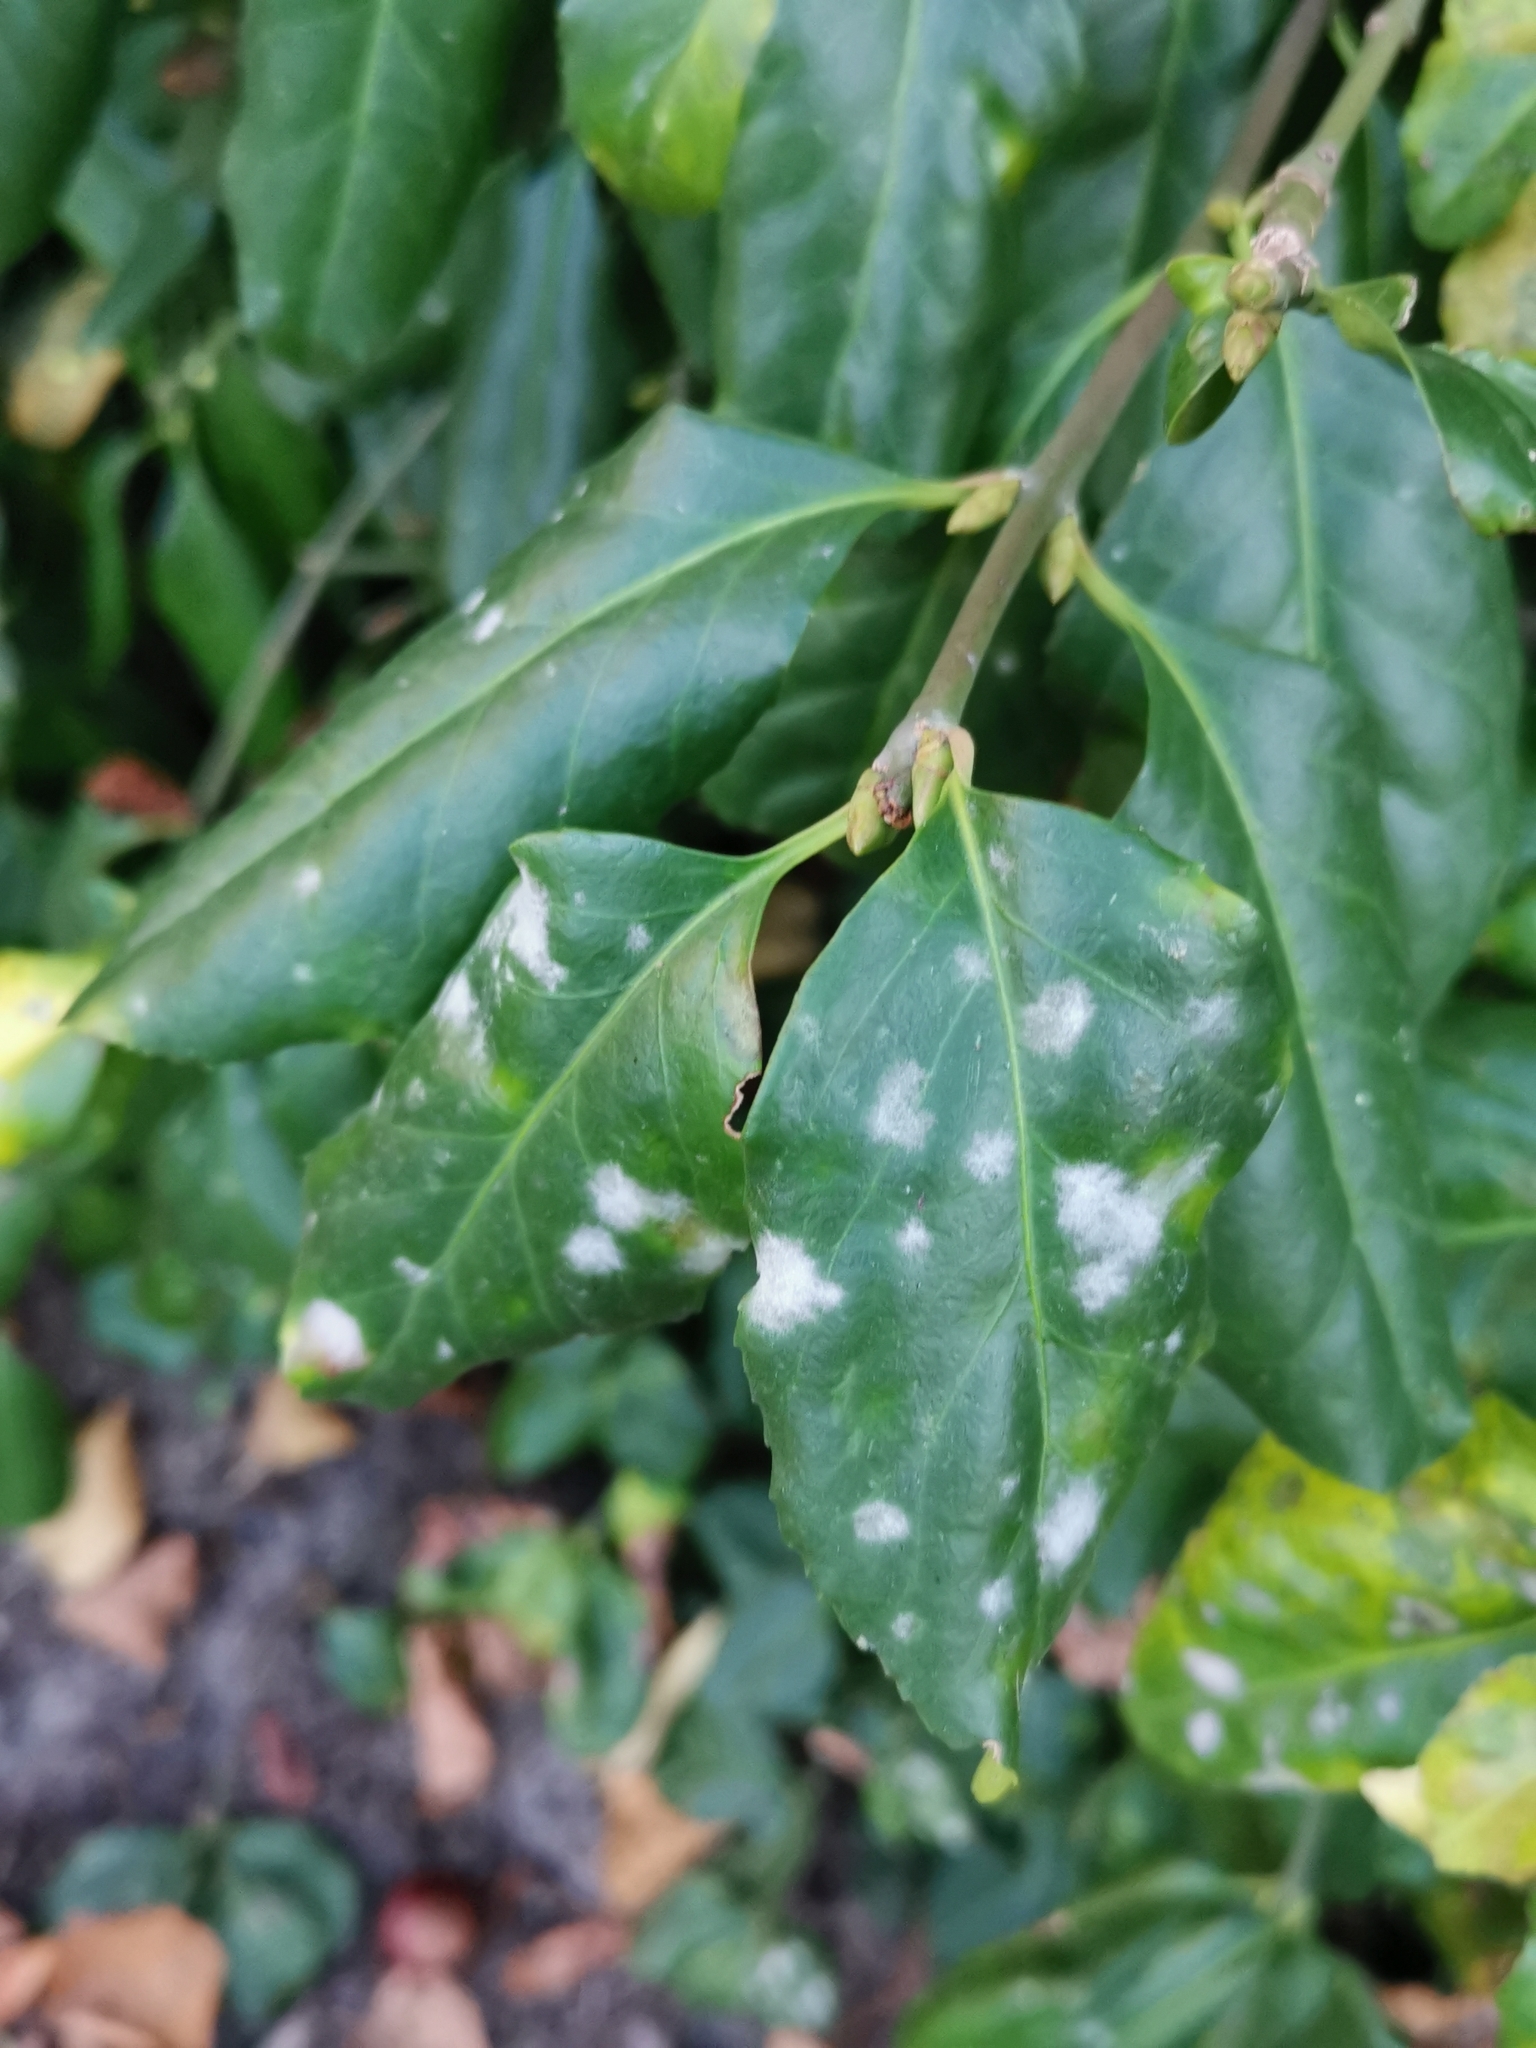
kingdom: Fungi
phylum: Ascomycota
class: Leotiomycetes
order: Helotiales
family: Erysiphaceae
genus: Erysiphe
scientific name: Erysiphe euonymicola
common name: Spindletree mildew
